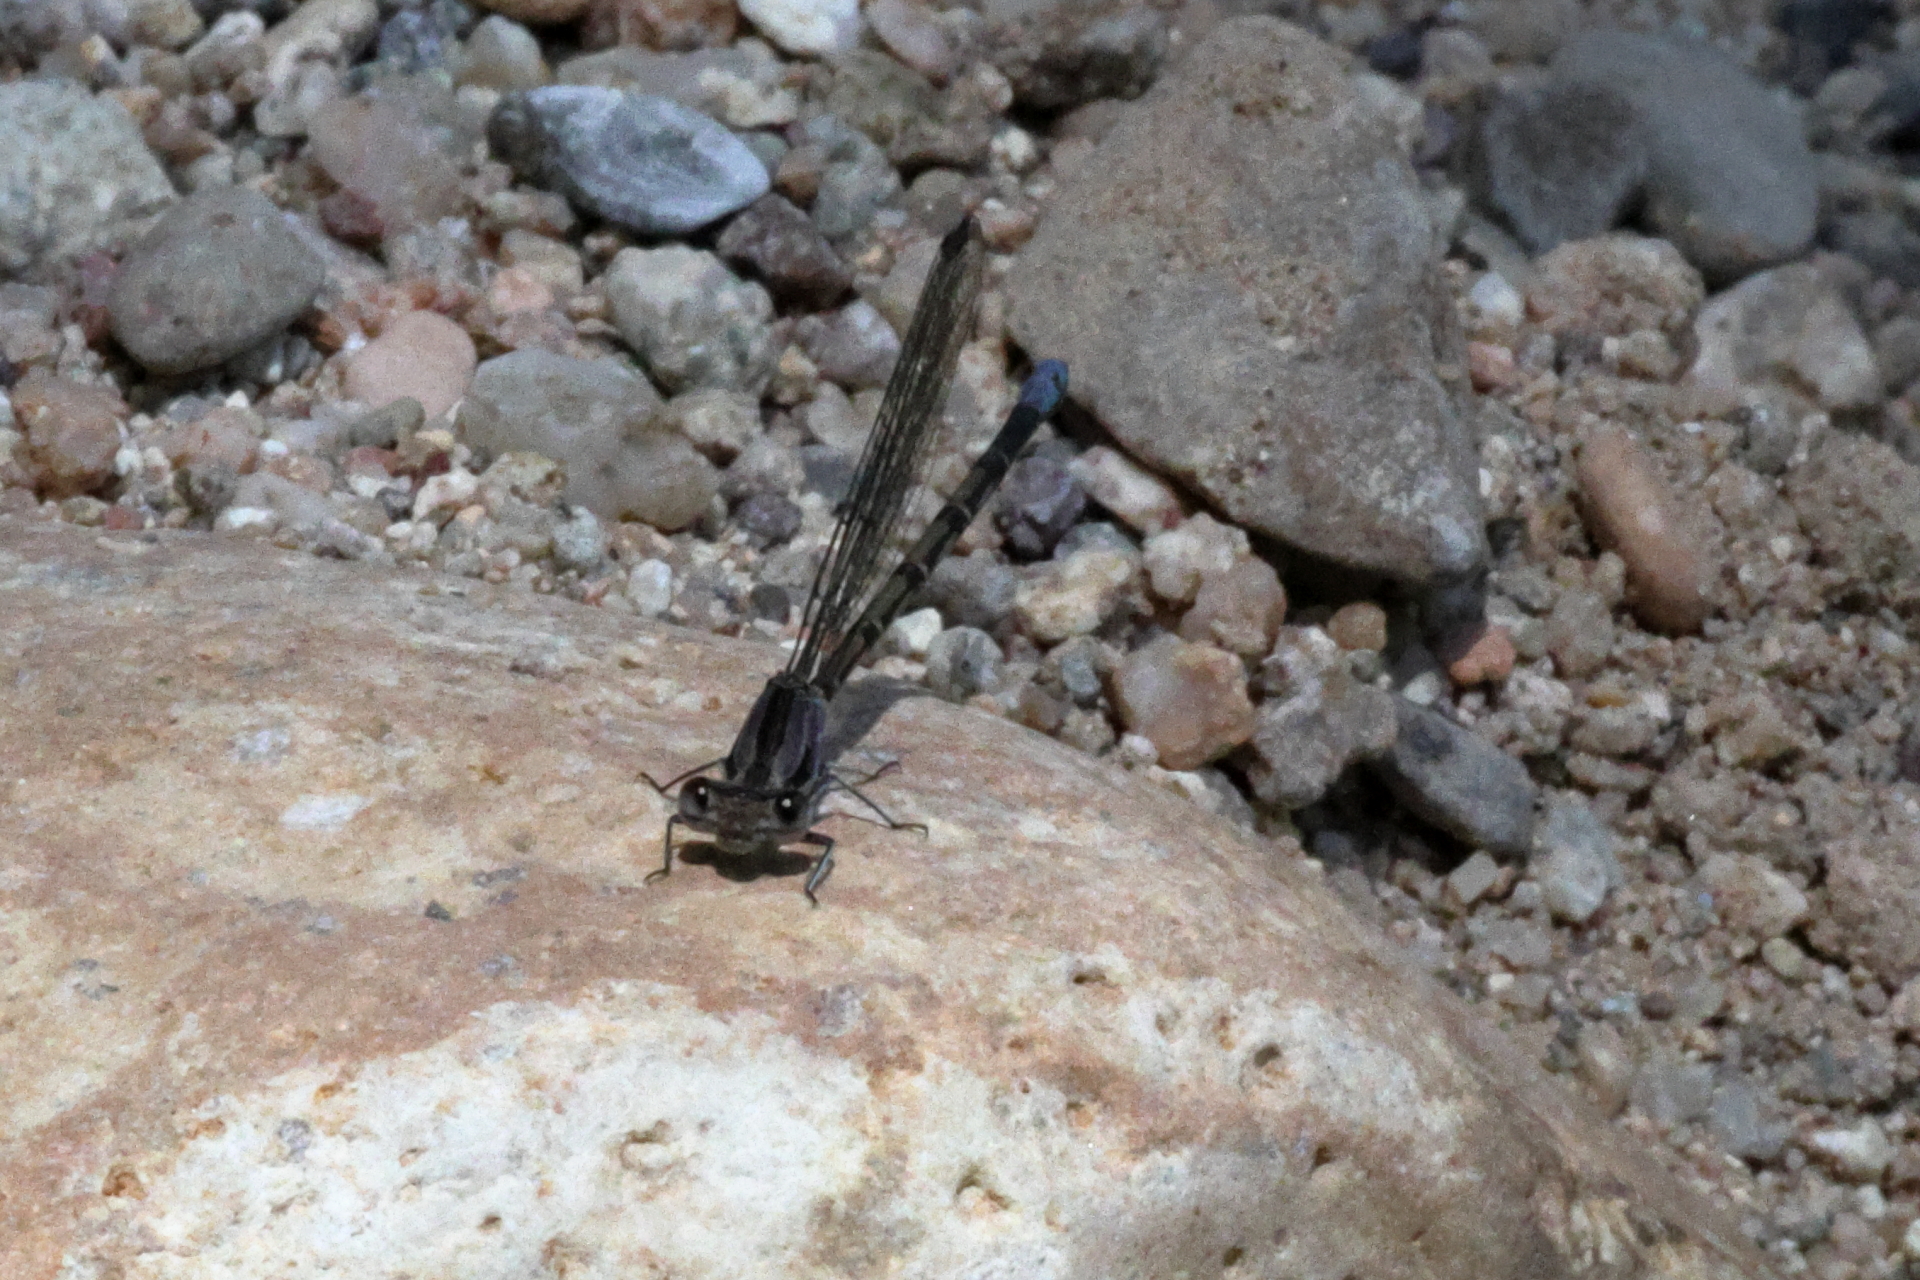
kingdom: Animalia
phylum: Arthropoda
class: Insecta
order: Odonata
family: Coenagrionidae
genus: Argia
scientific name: Argia extranea
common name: Spine-tipped dancer
